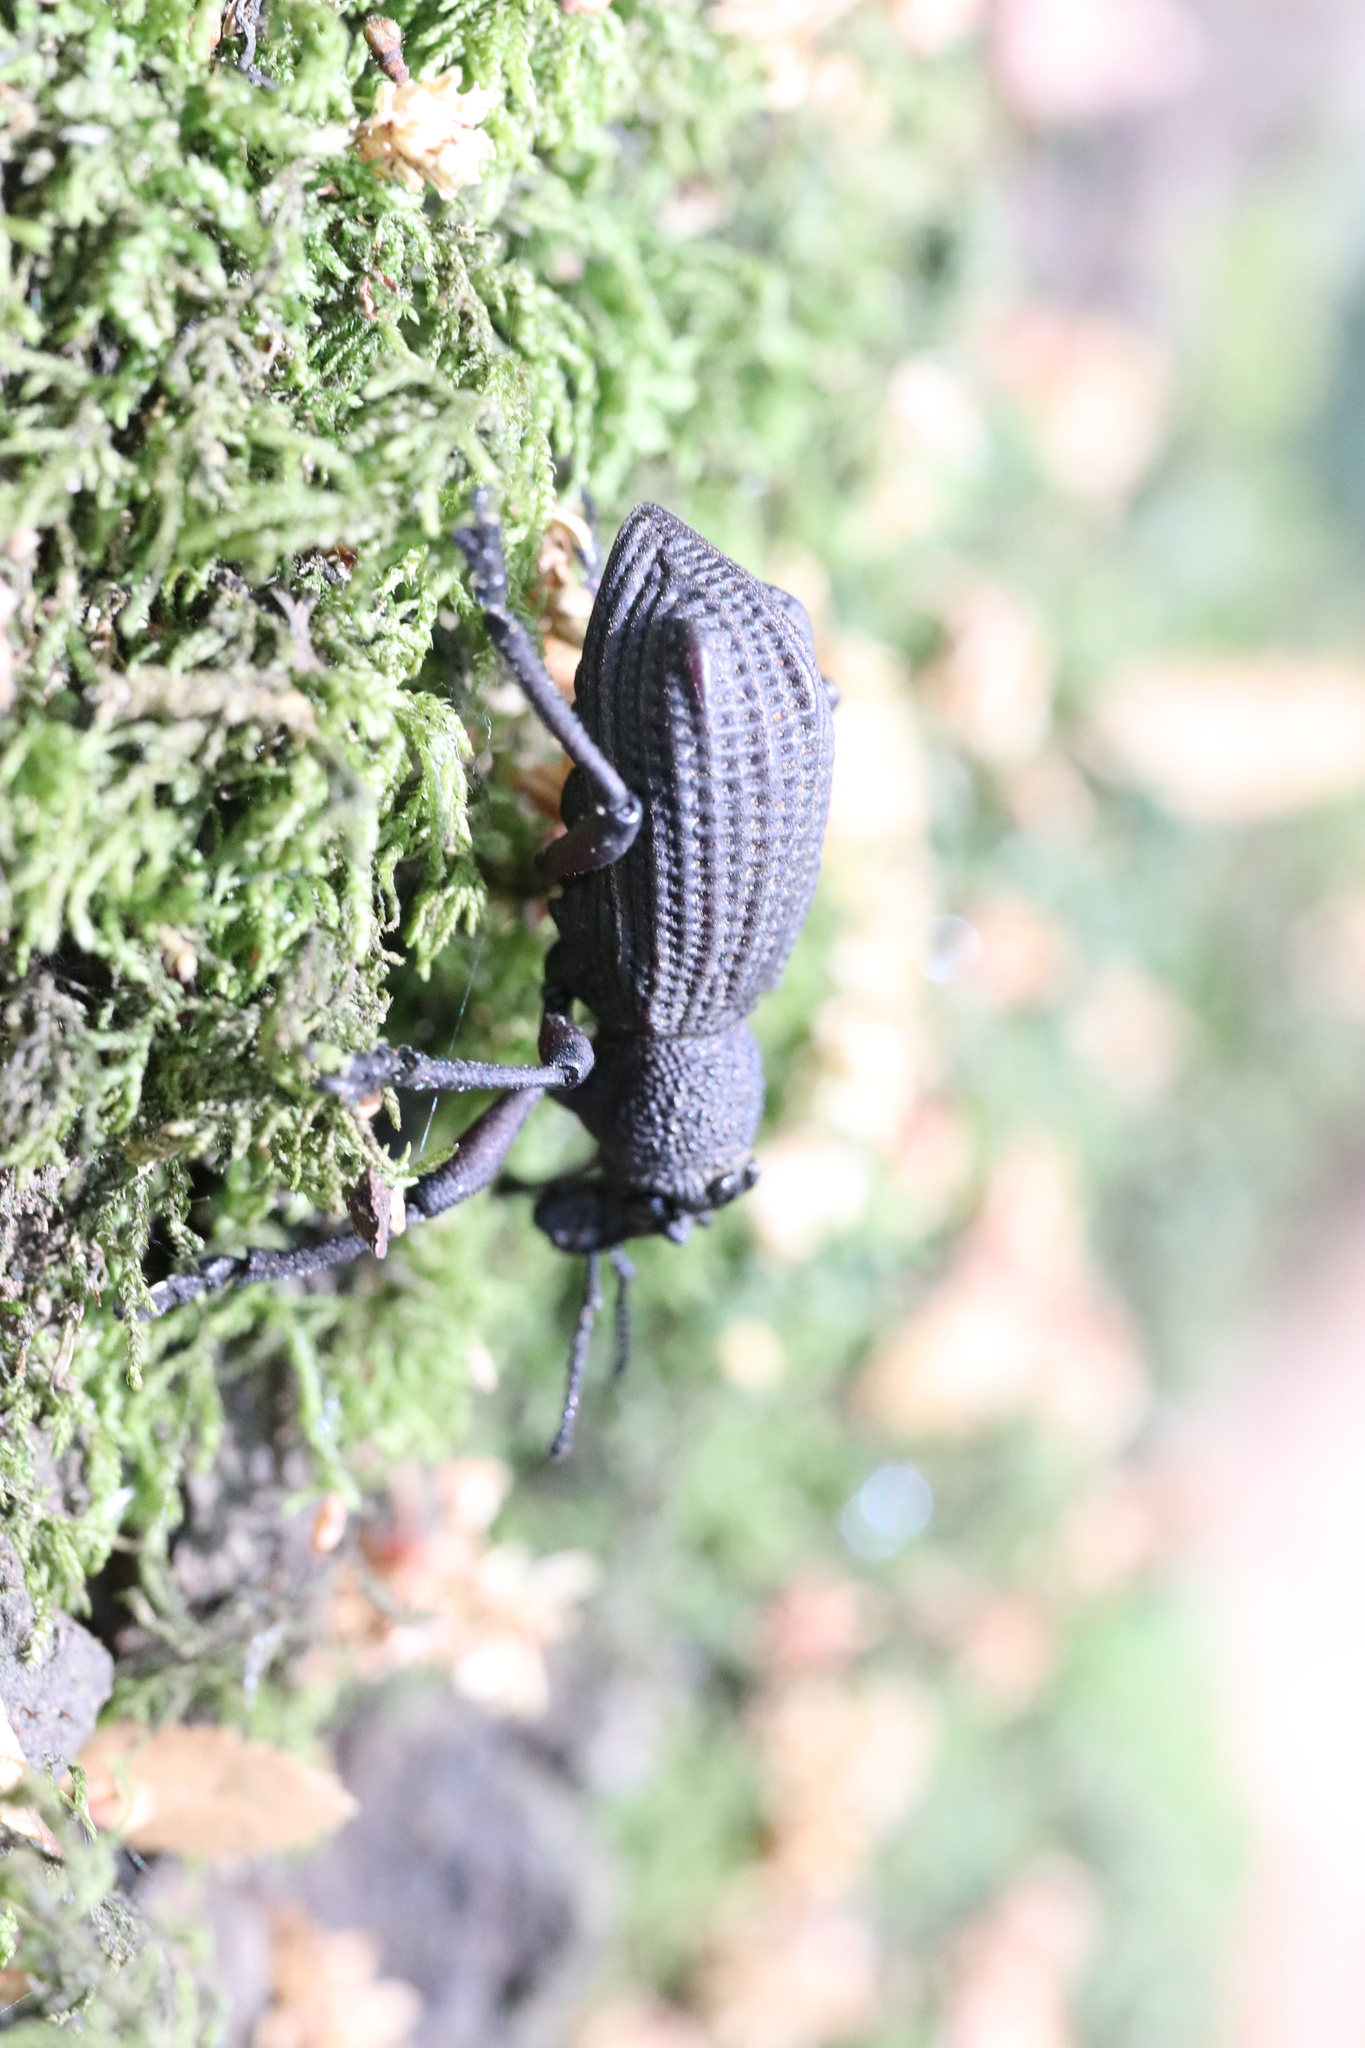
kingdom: Animalia
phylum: Arthropoda
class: Insecta
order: Coleoptera
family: Curculionidae
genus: Aegorhinus
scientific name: Aegorhinus
